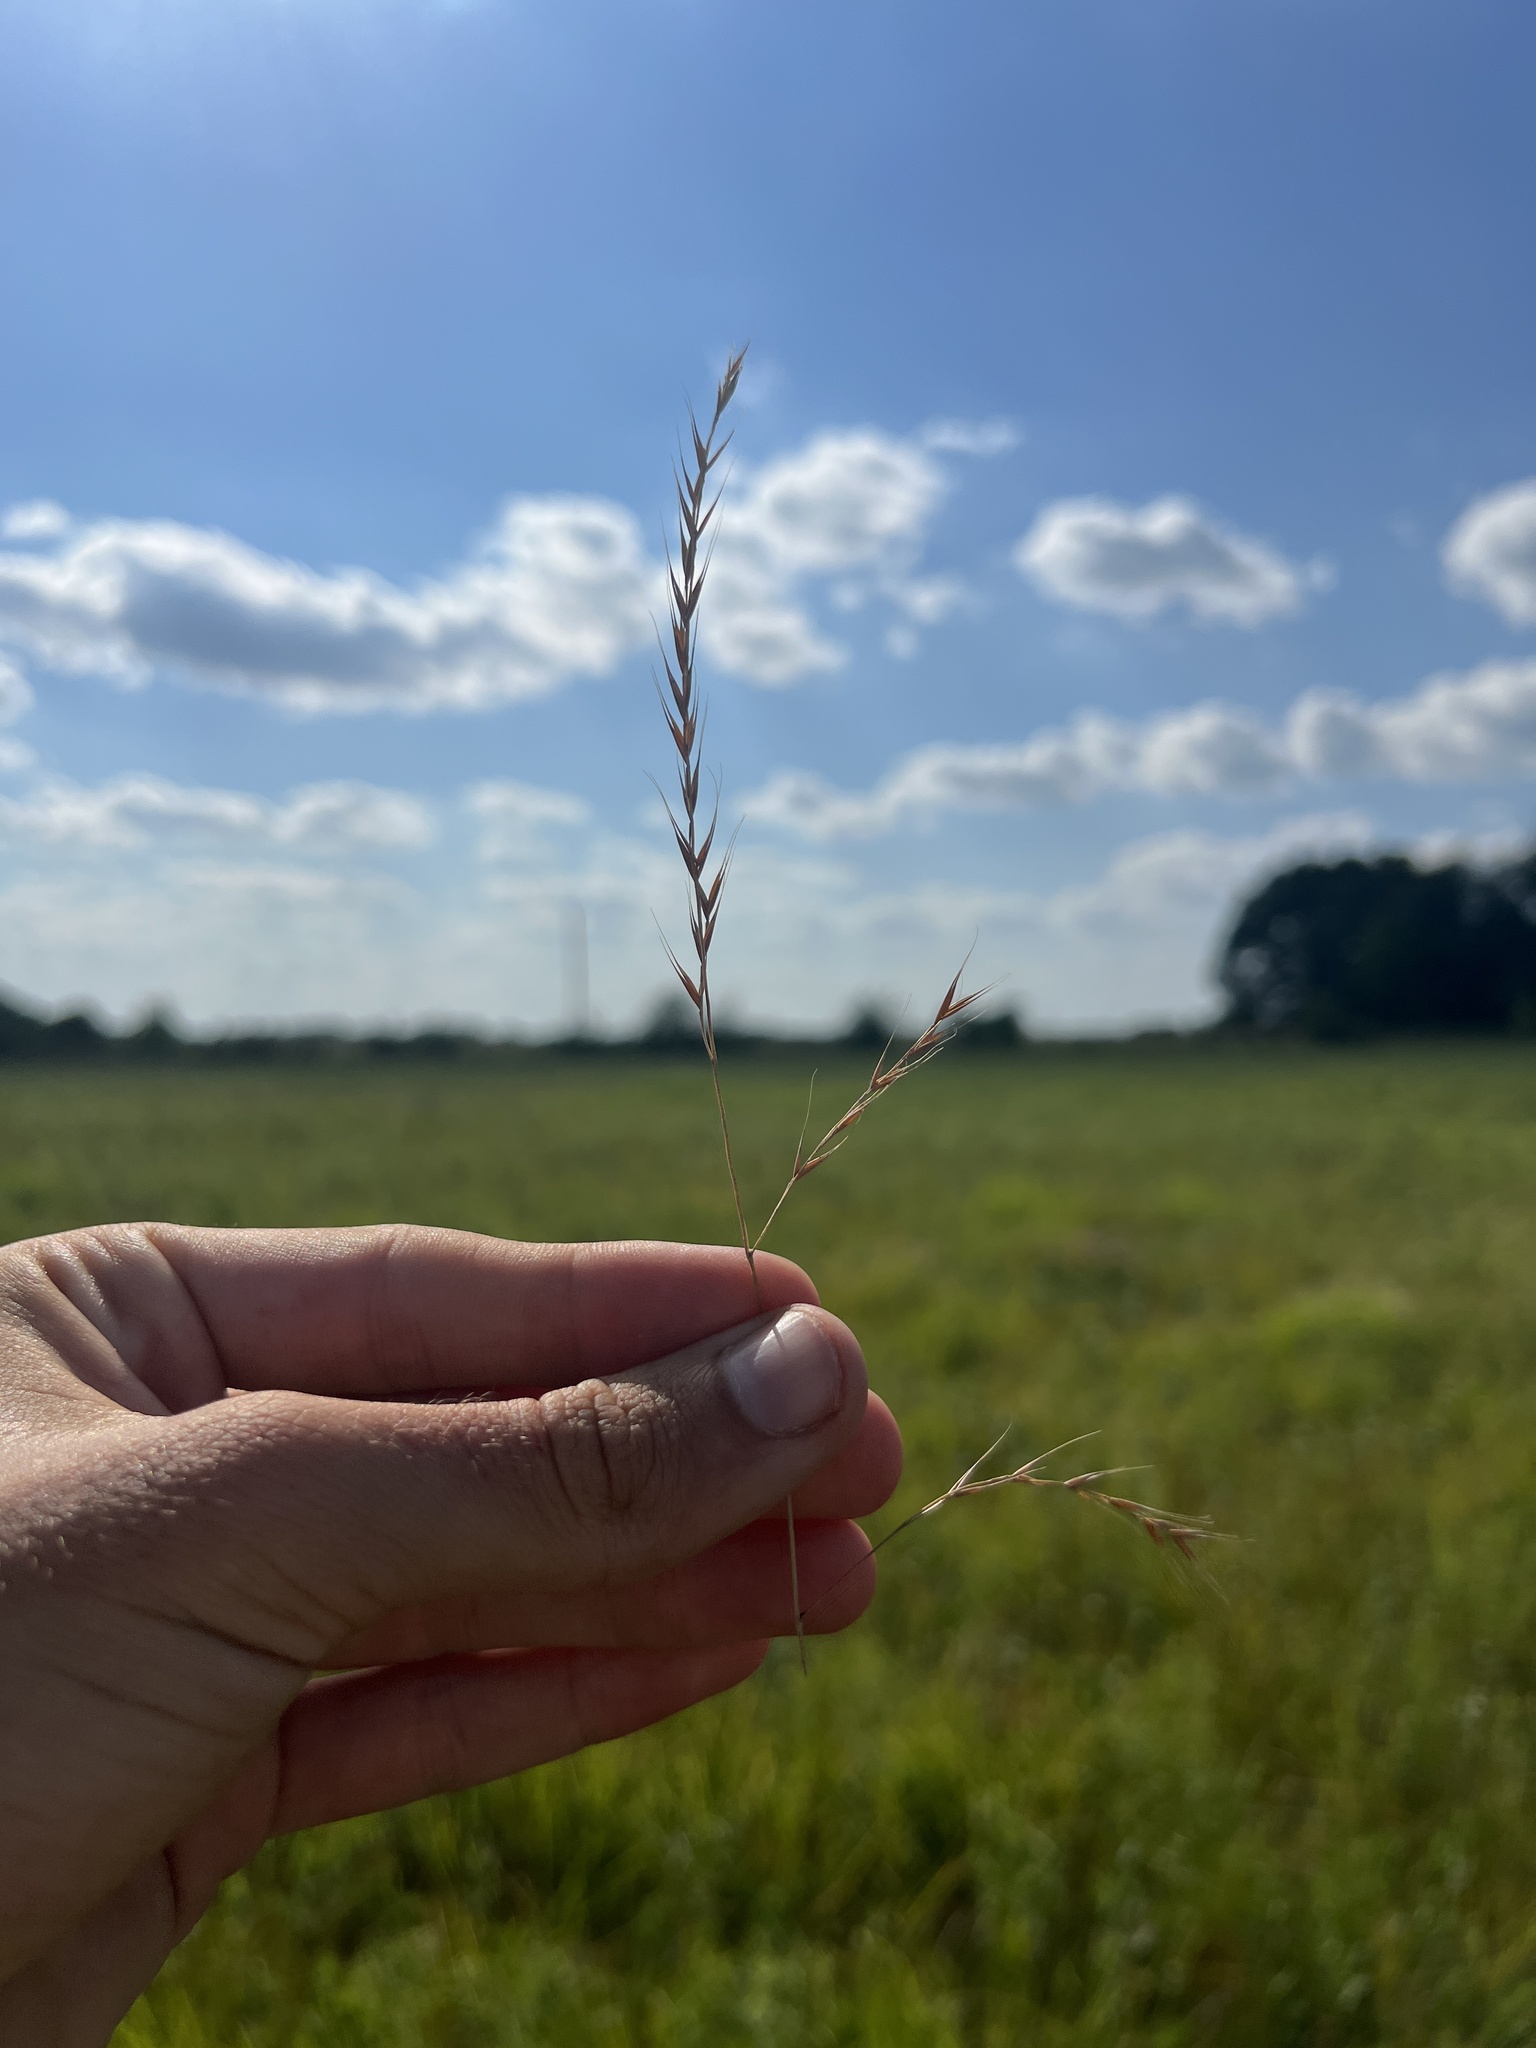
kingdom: Plantae
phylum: Tracheophyta
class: Liliopsida
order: Poales
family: Poaceae
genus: Festuca
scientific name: Festuca octoflora
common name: Sixweeks grass
